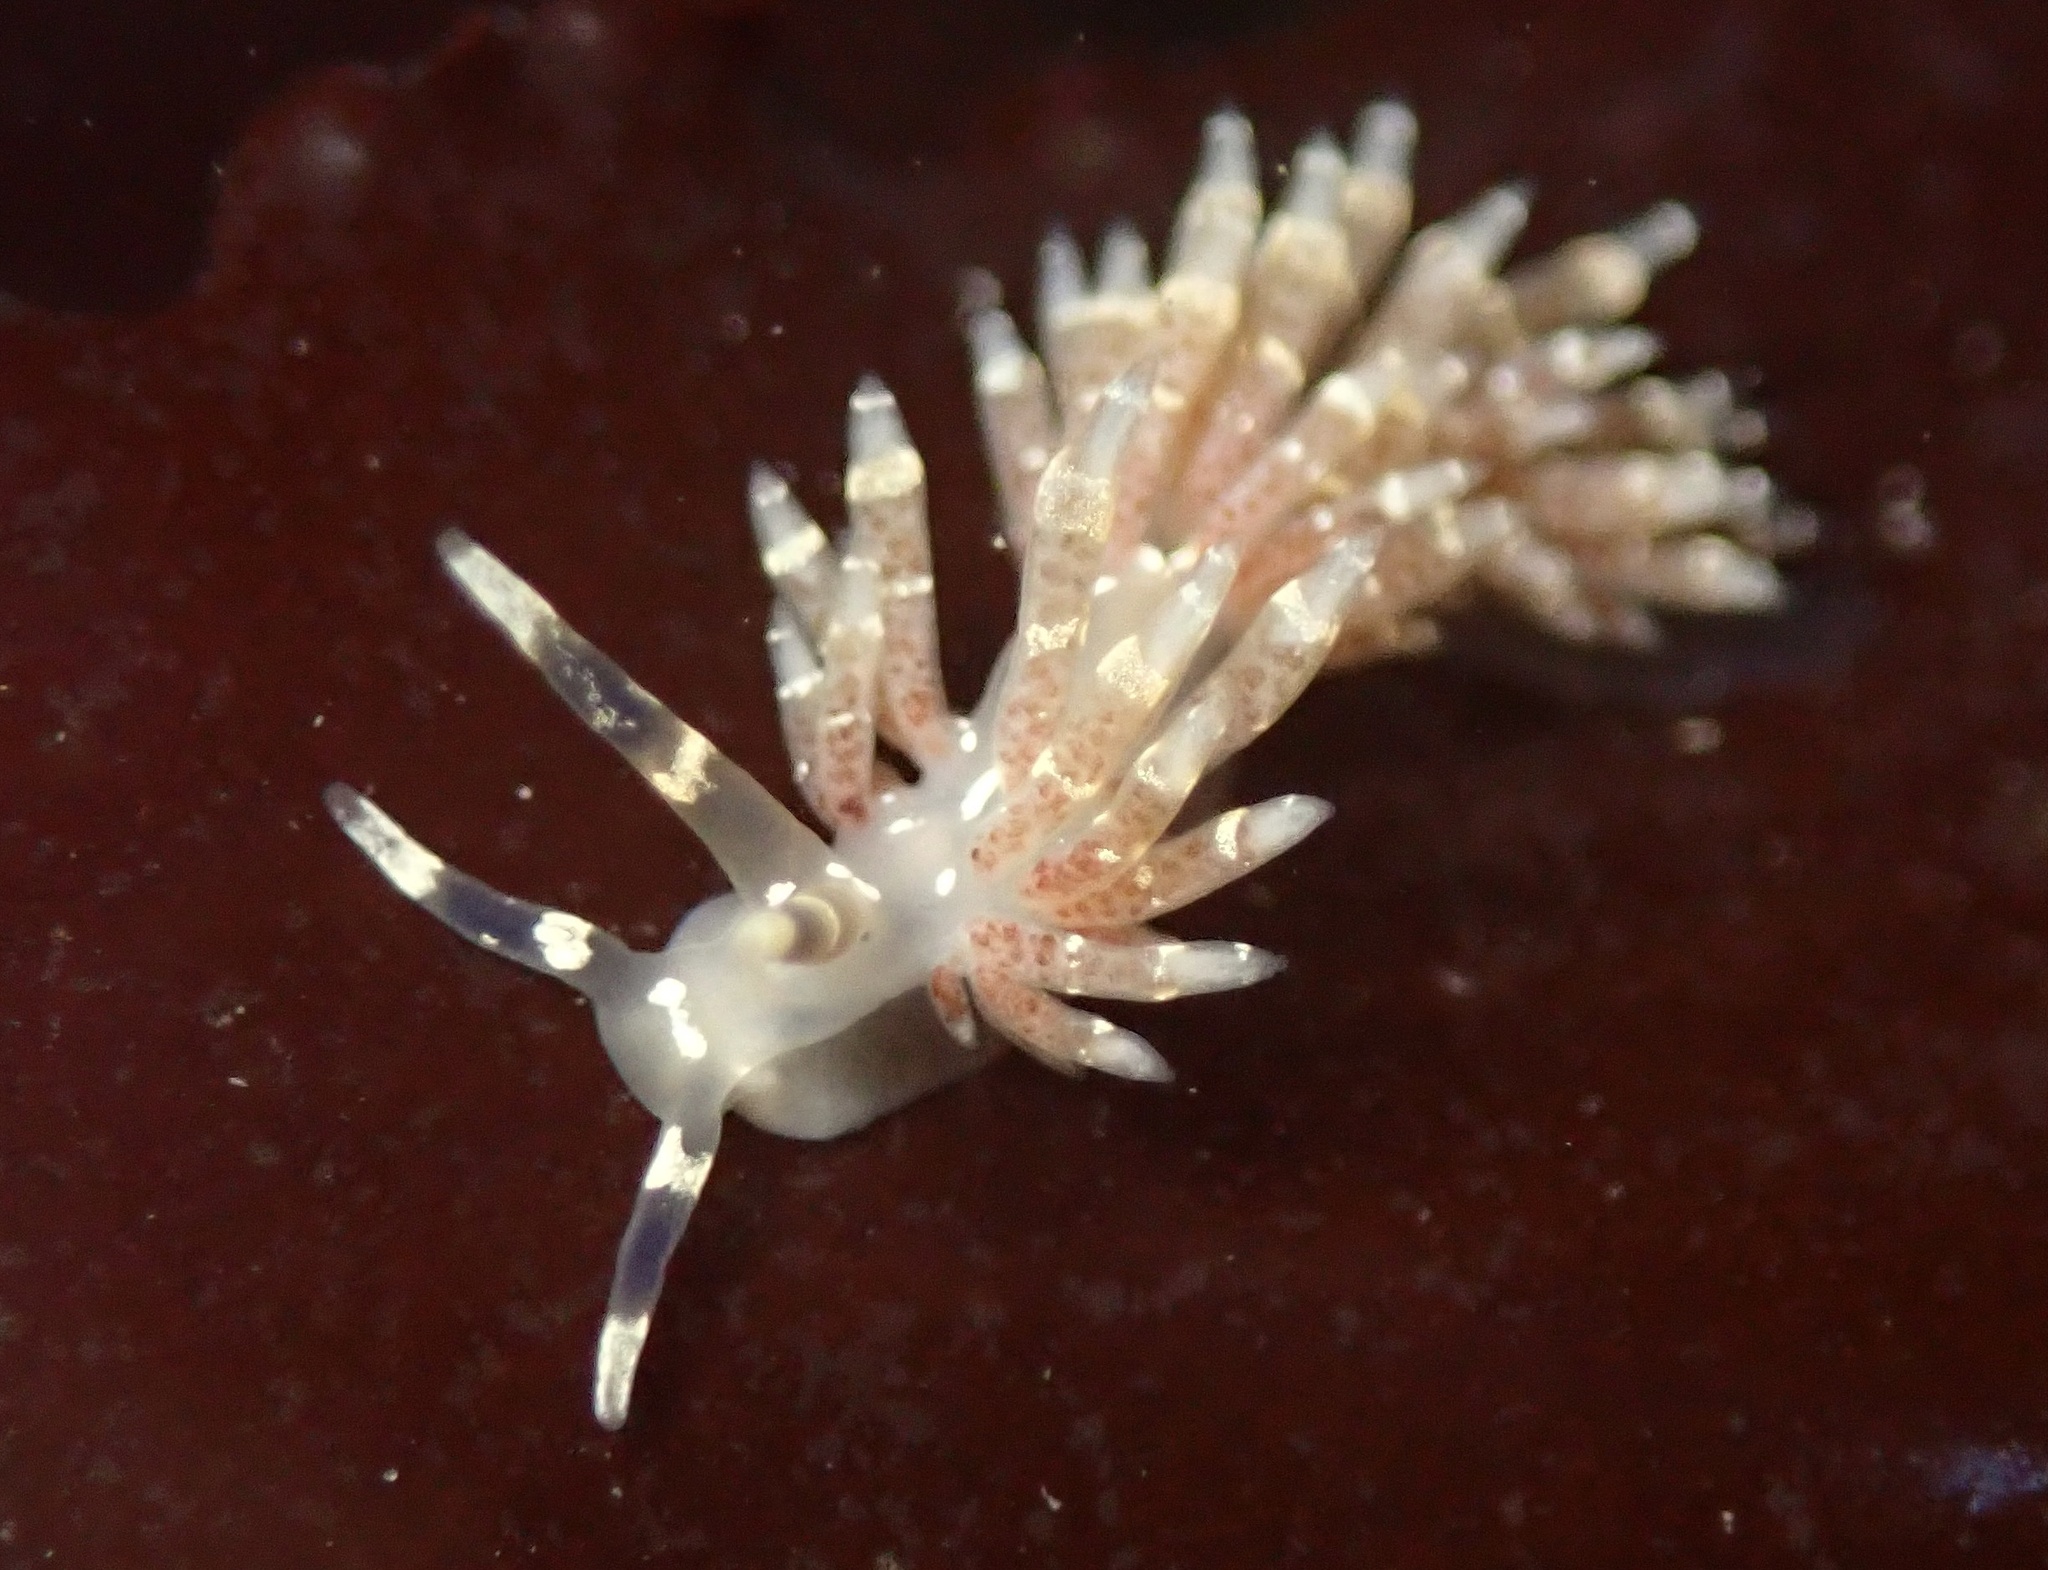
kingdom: Animalia
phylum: Mollusca
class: Gastropoda
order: Nudibranchia
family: Abronicidae
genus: Abronica
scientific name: Abronica abronia
